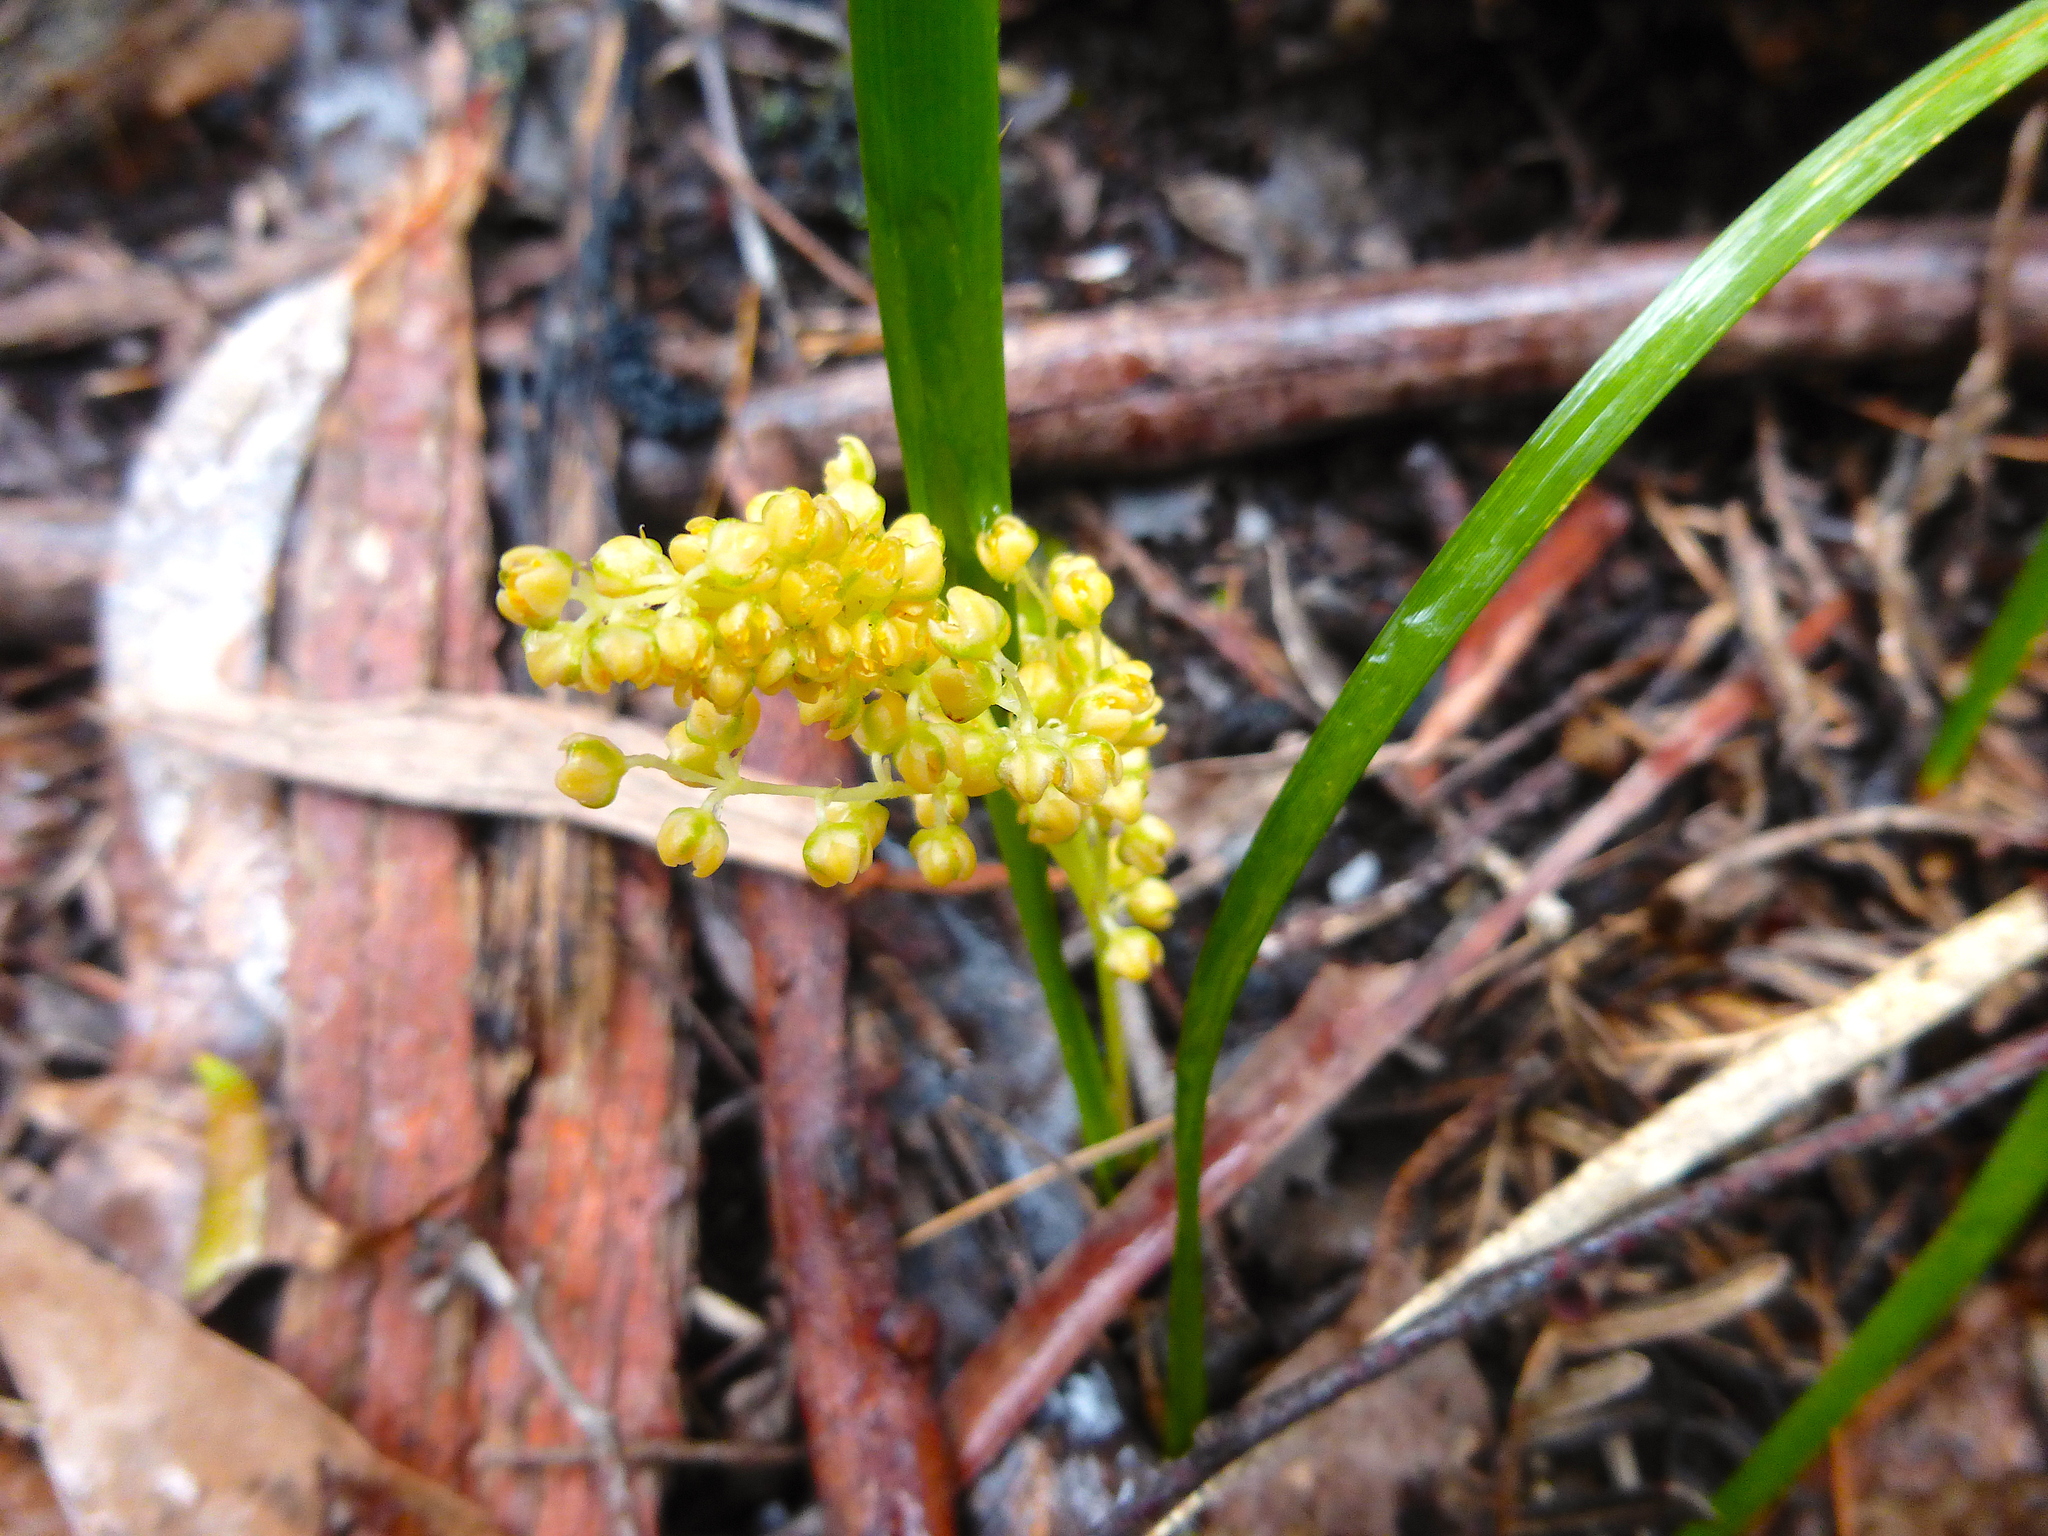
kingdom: Plantae
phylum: Tracheophyta
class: Liliopsida
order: Asparagales
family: Asparagaceae
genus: Lomandra
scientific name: Lomandra filiformis
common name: Wattle mat-rush
